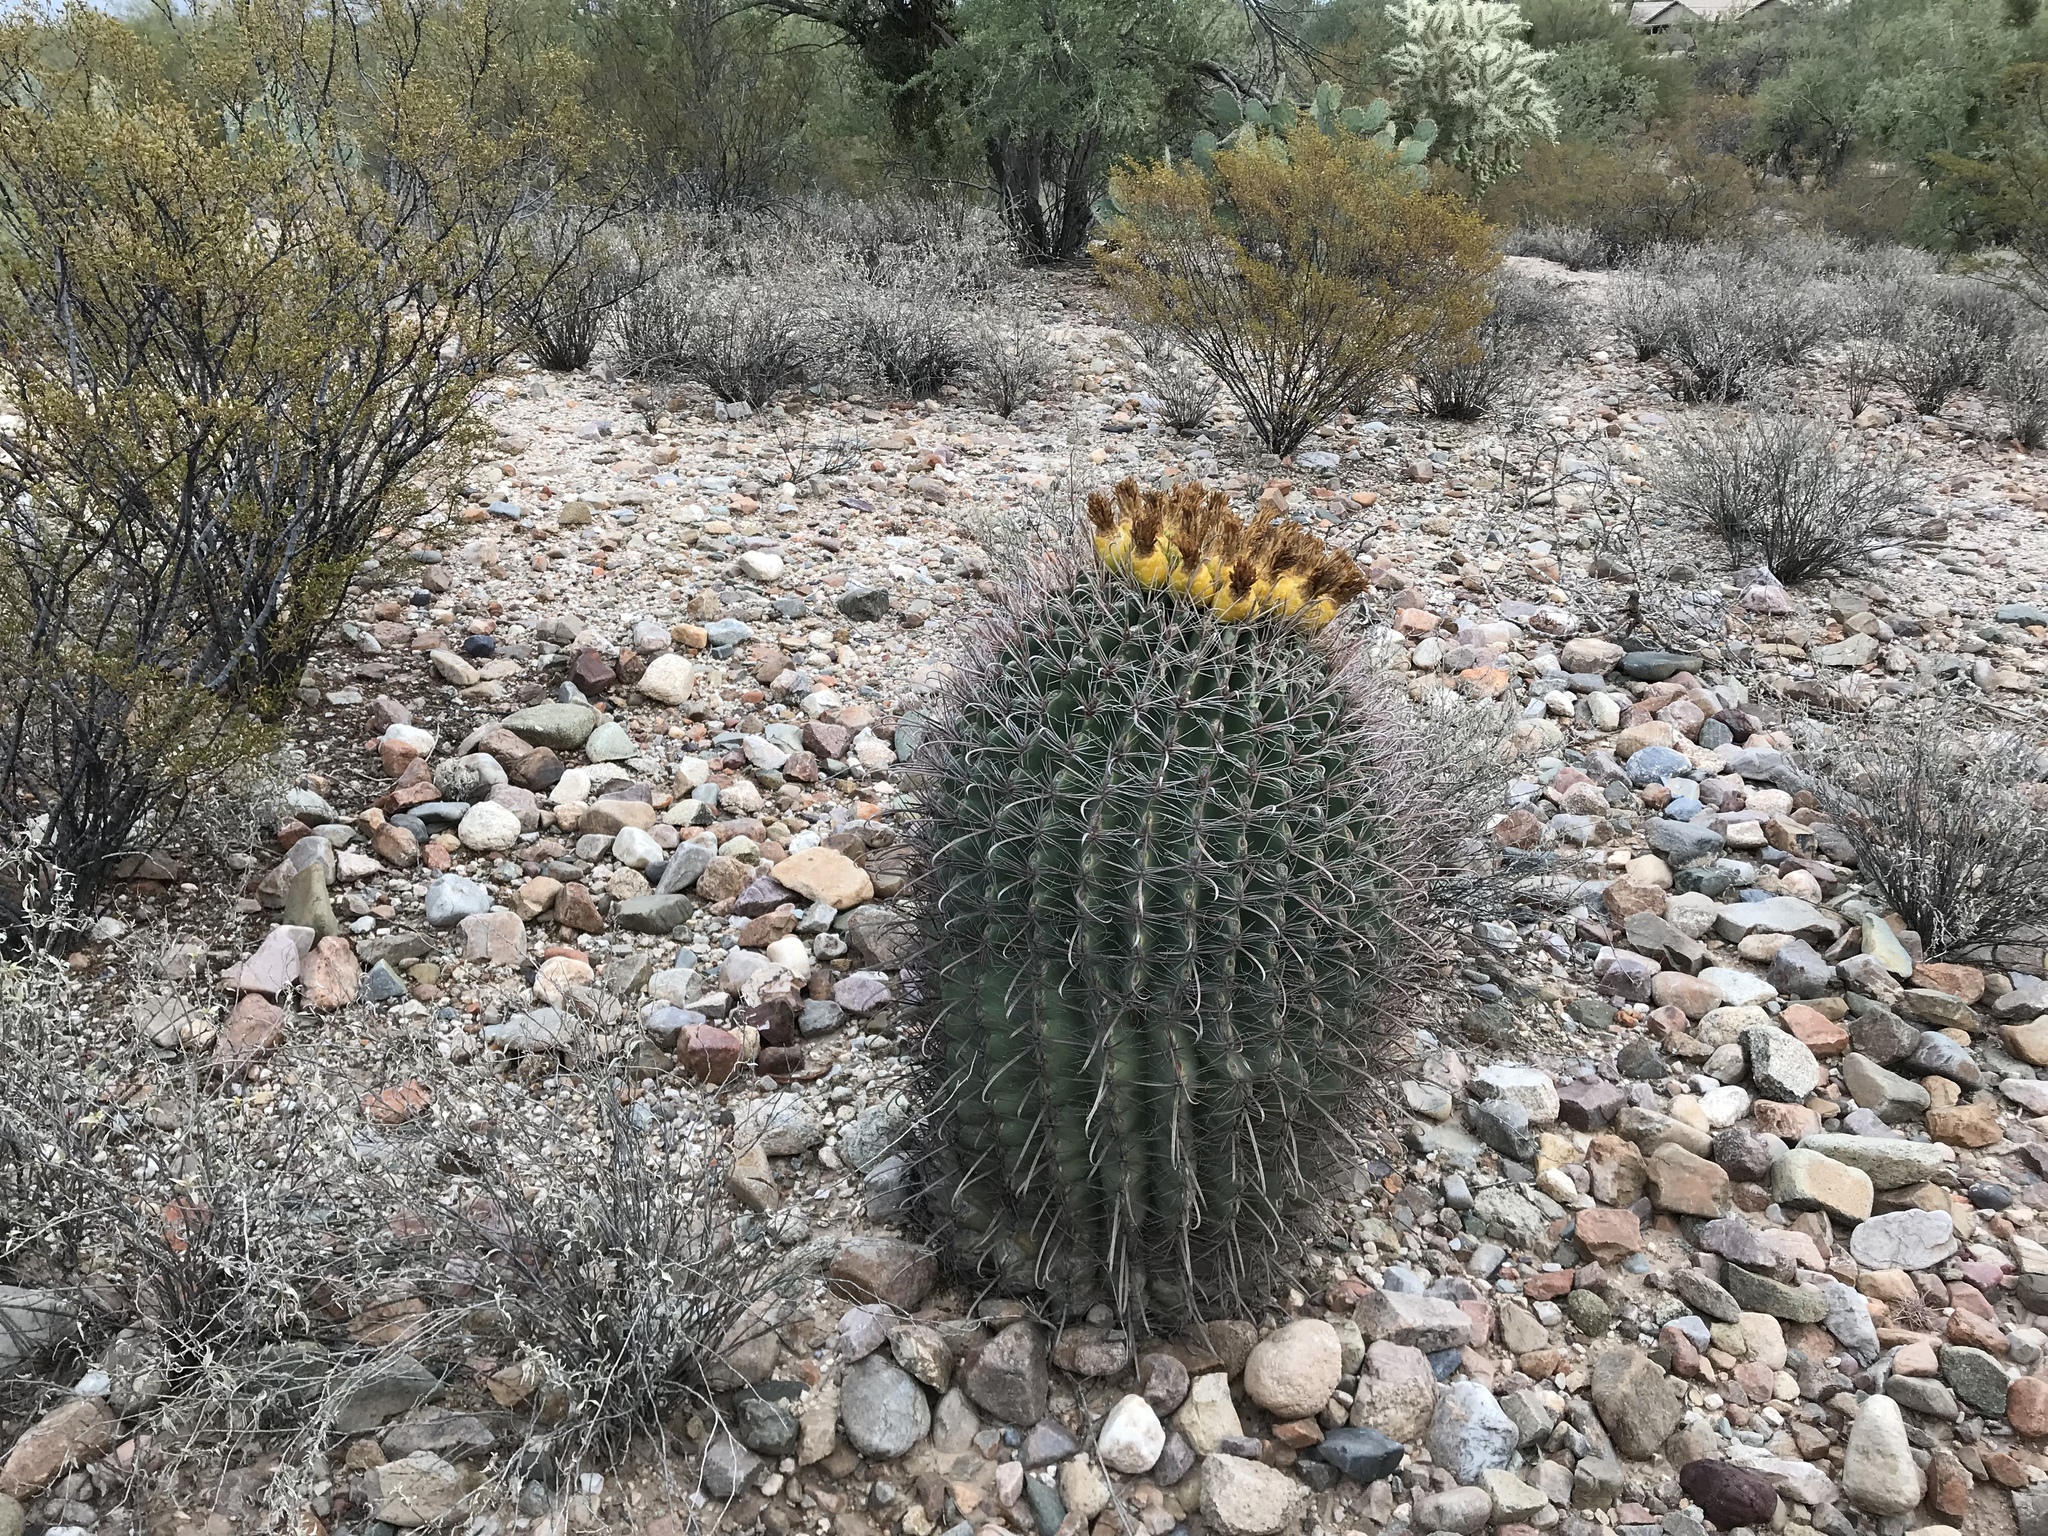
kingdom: Plantae
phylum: Tracheophyta
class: Magnoliopsida
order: Caryophyllales
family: Cactaceae
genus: Ferocactus
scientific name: Ferocactus wislizeni
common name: Candy barrel cactus
